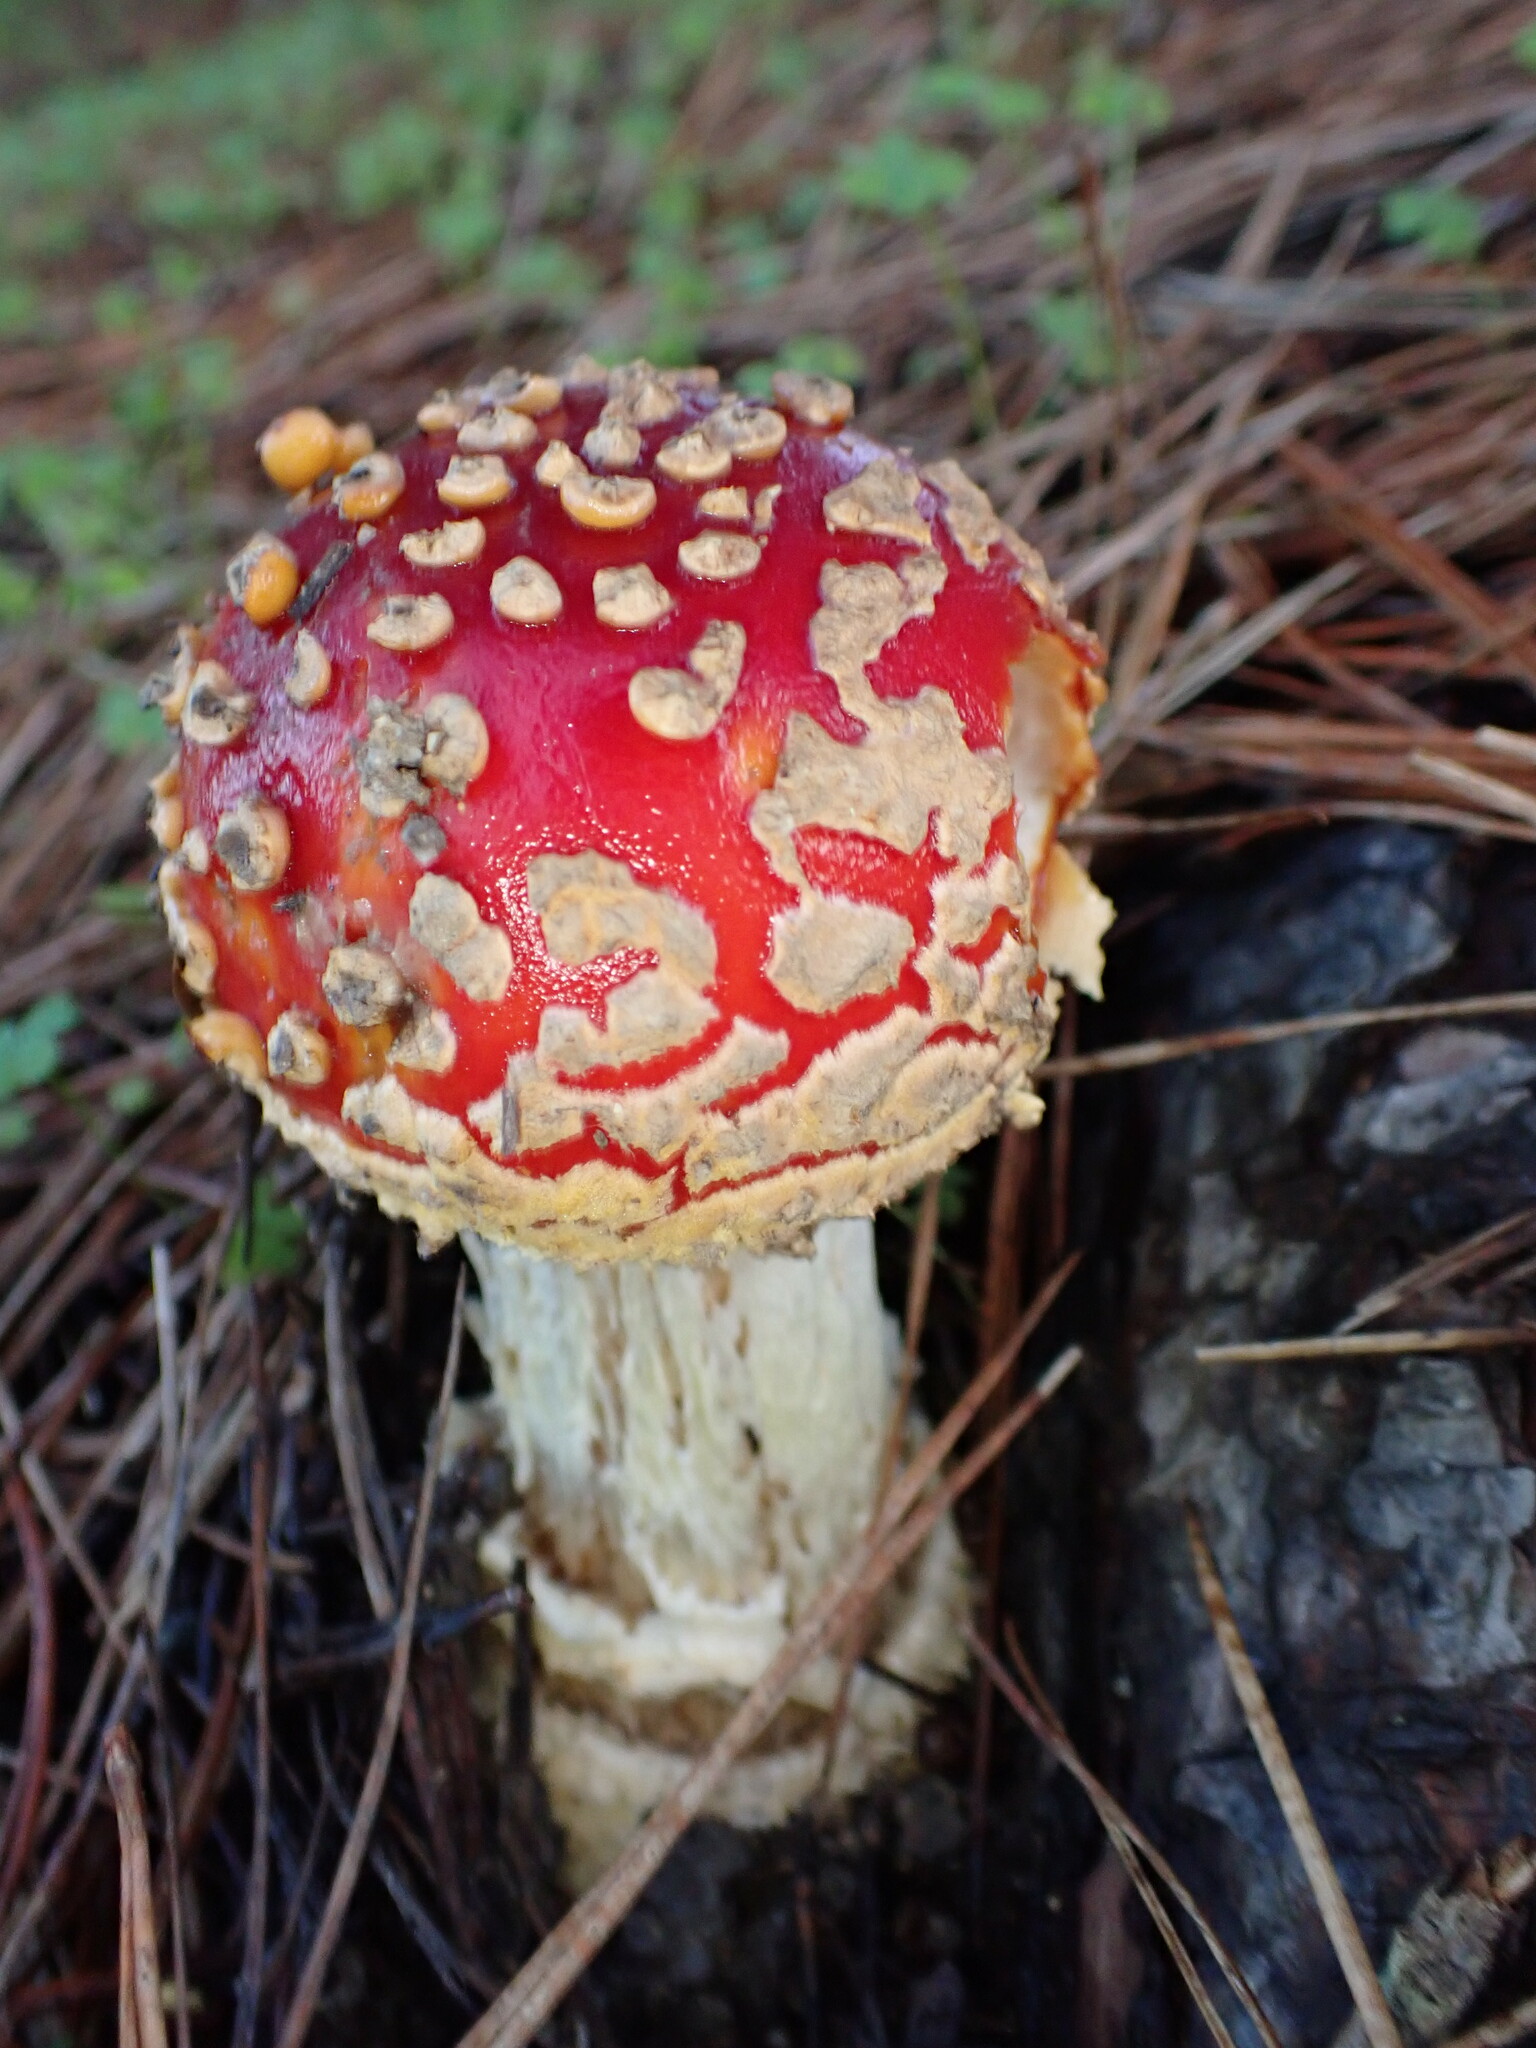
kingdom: Fungi
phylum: Basidiomycota
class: Agaricomycetes
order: Agaricales
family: Amanitaceae
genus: Amanita
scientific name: Amanita muscaria
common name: Fly agaric
